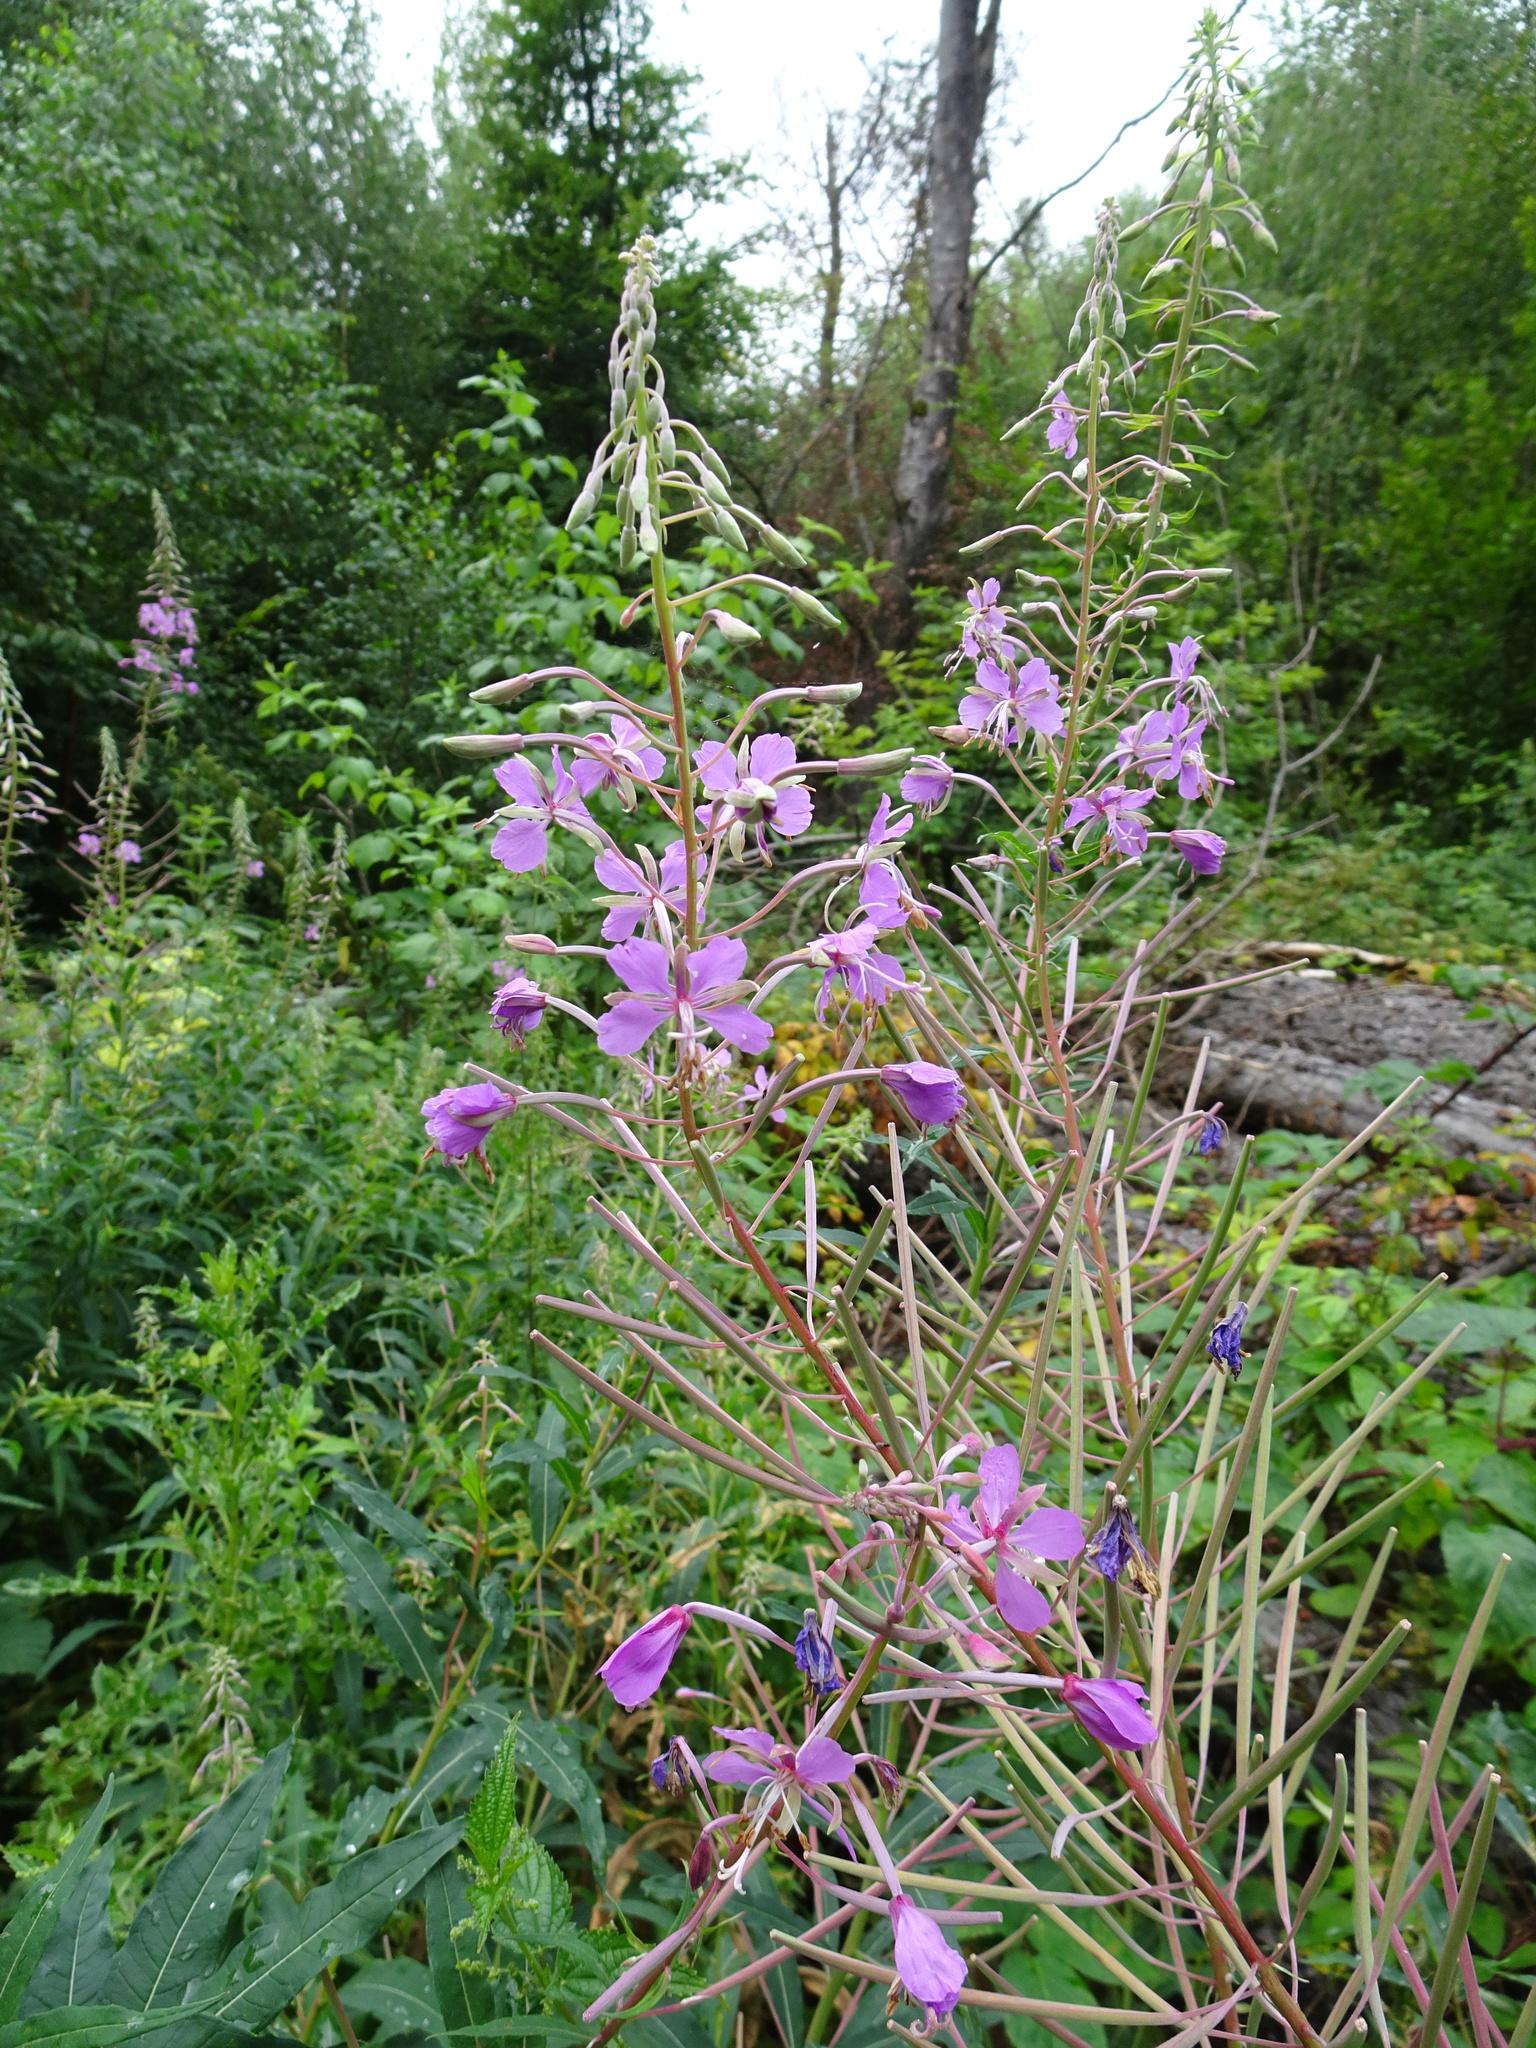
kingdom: Plantae
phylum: Tracheophyta
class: Magnoliopsida
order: Myrtales
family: Onagraceae
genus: Chamaenerion
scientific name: Chamaenerion angustifolium
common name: Fireweed
